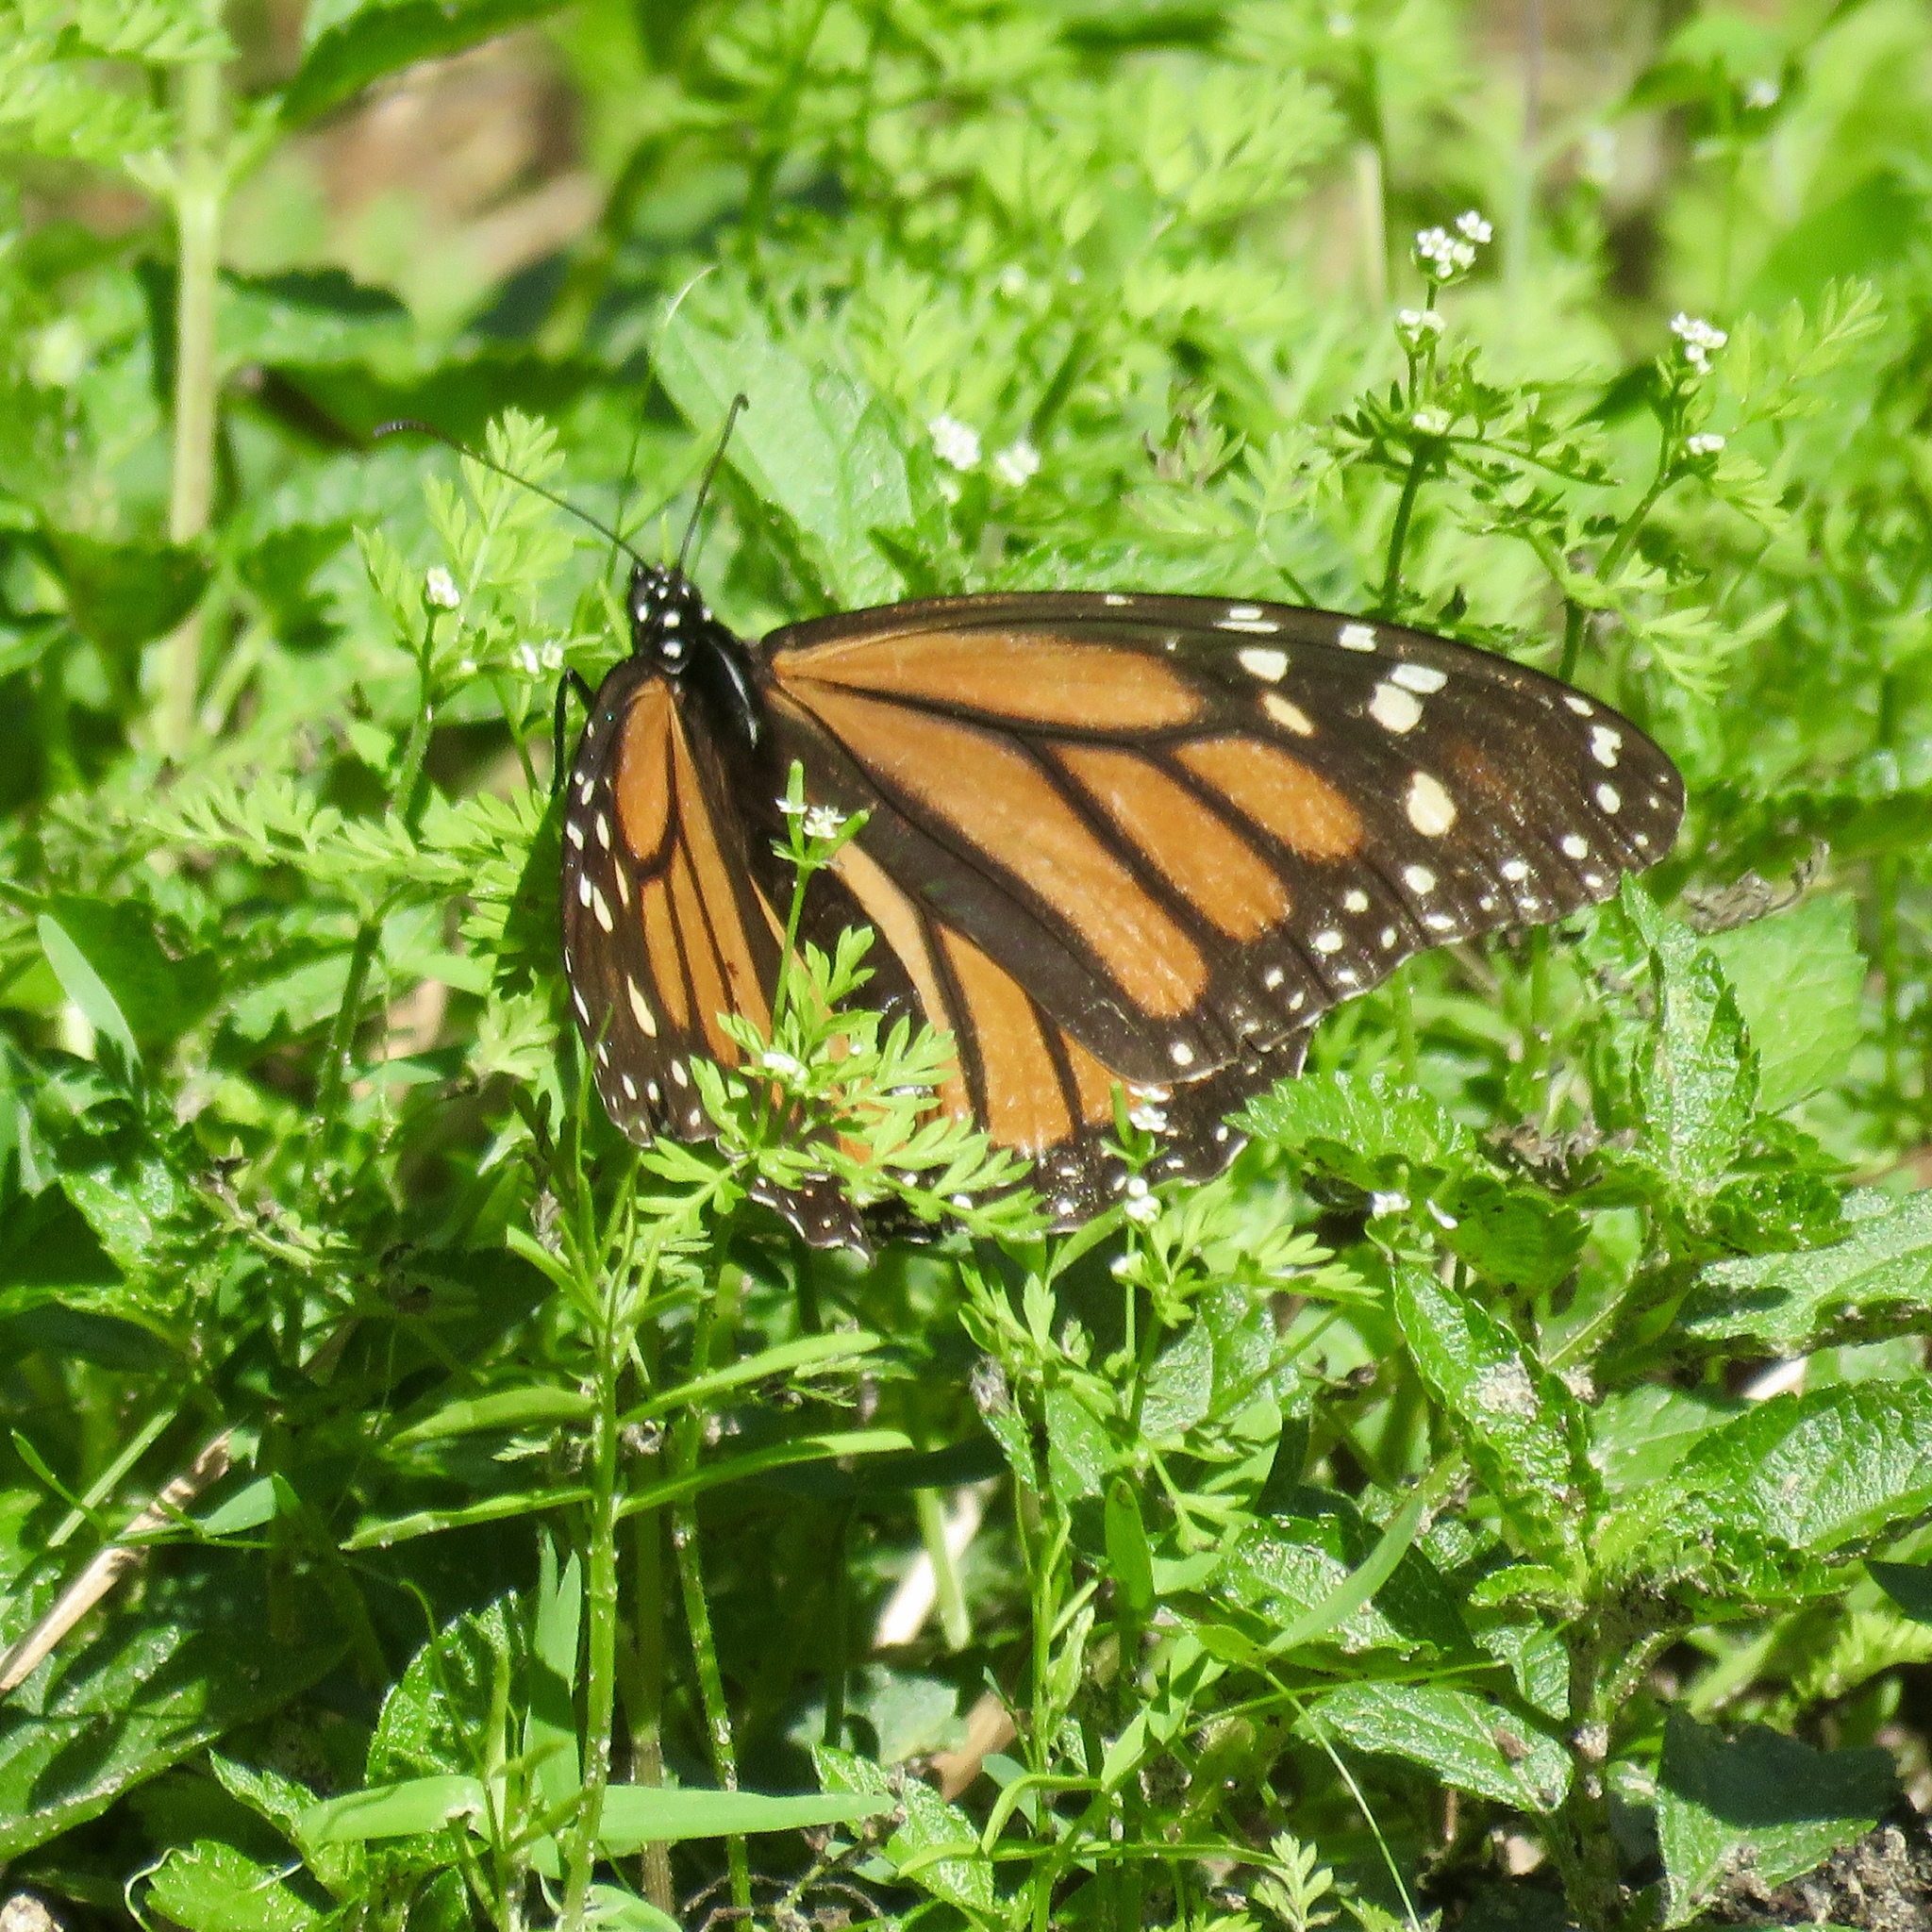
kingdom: Animalia
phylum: Arthropoda
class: Insecta
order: Lepidoptera
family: Nymphalidae
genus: Danaus
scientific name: Danaus plexippus
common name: Monarch
